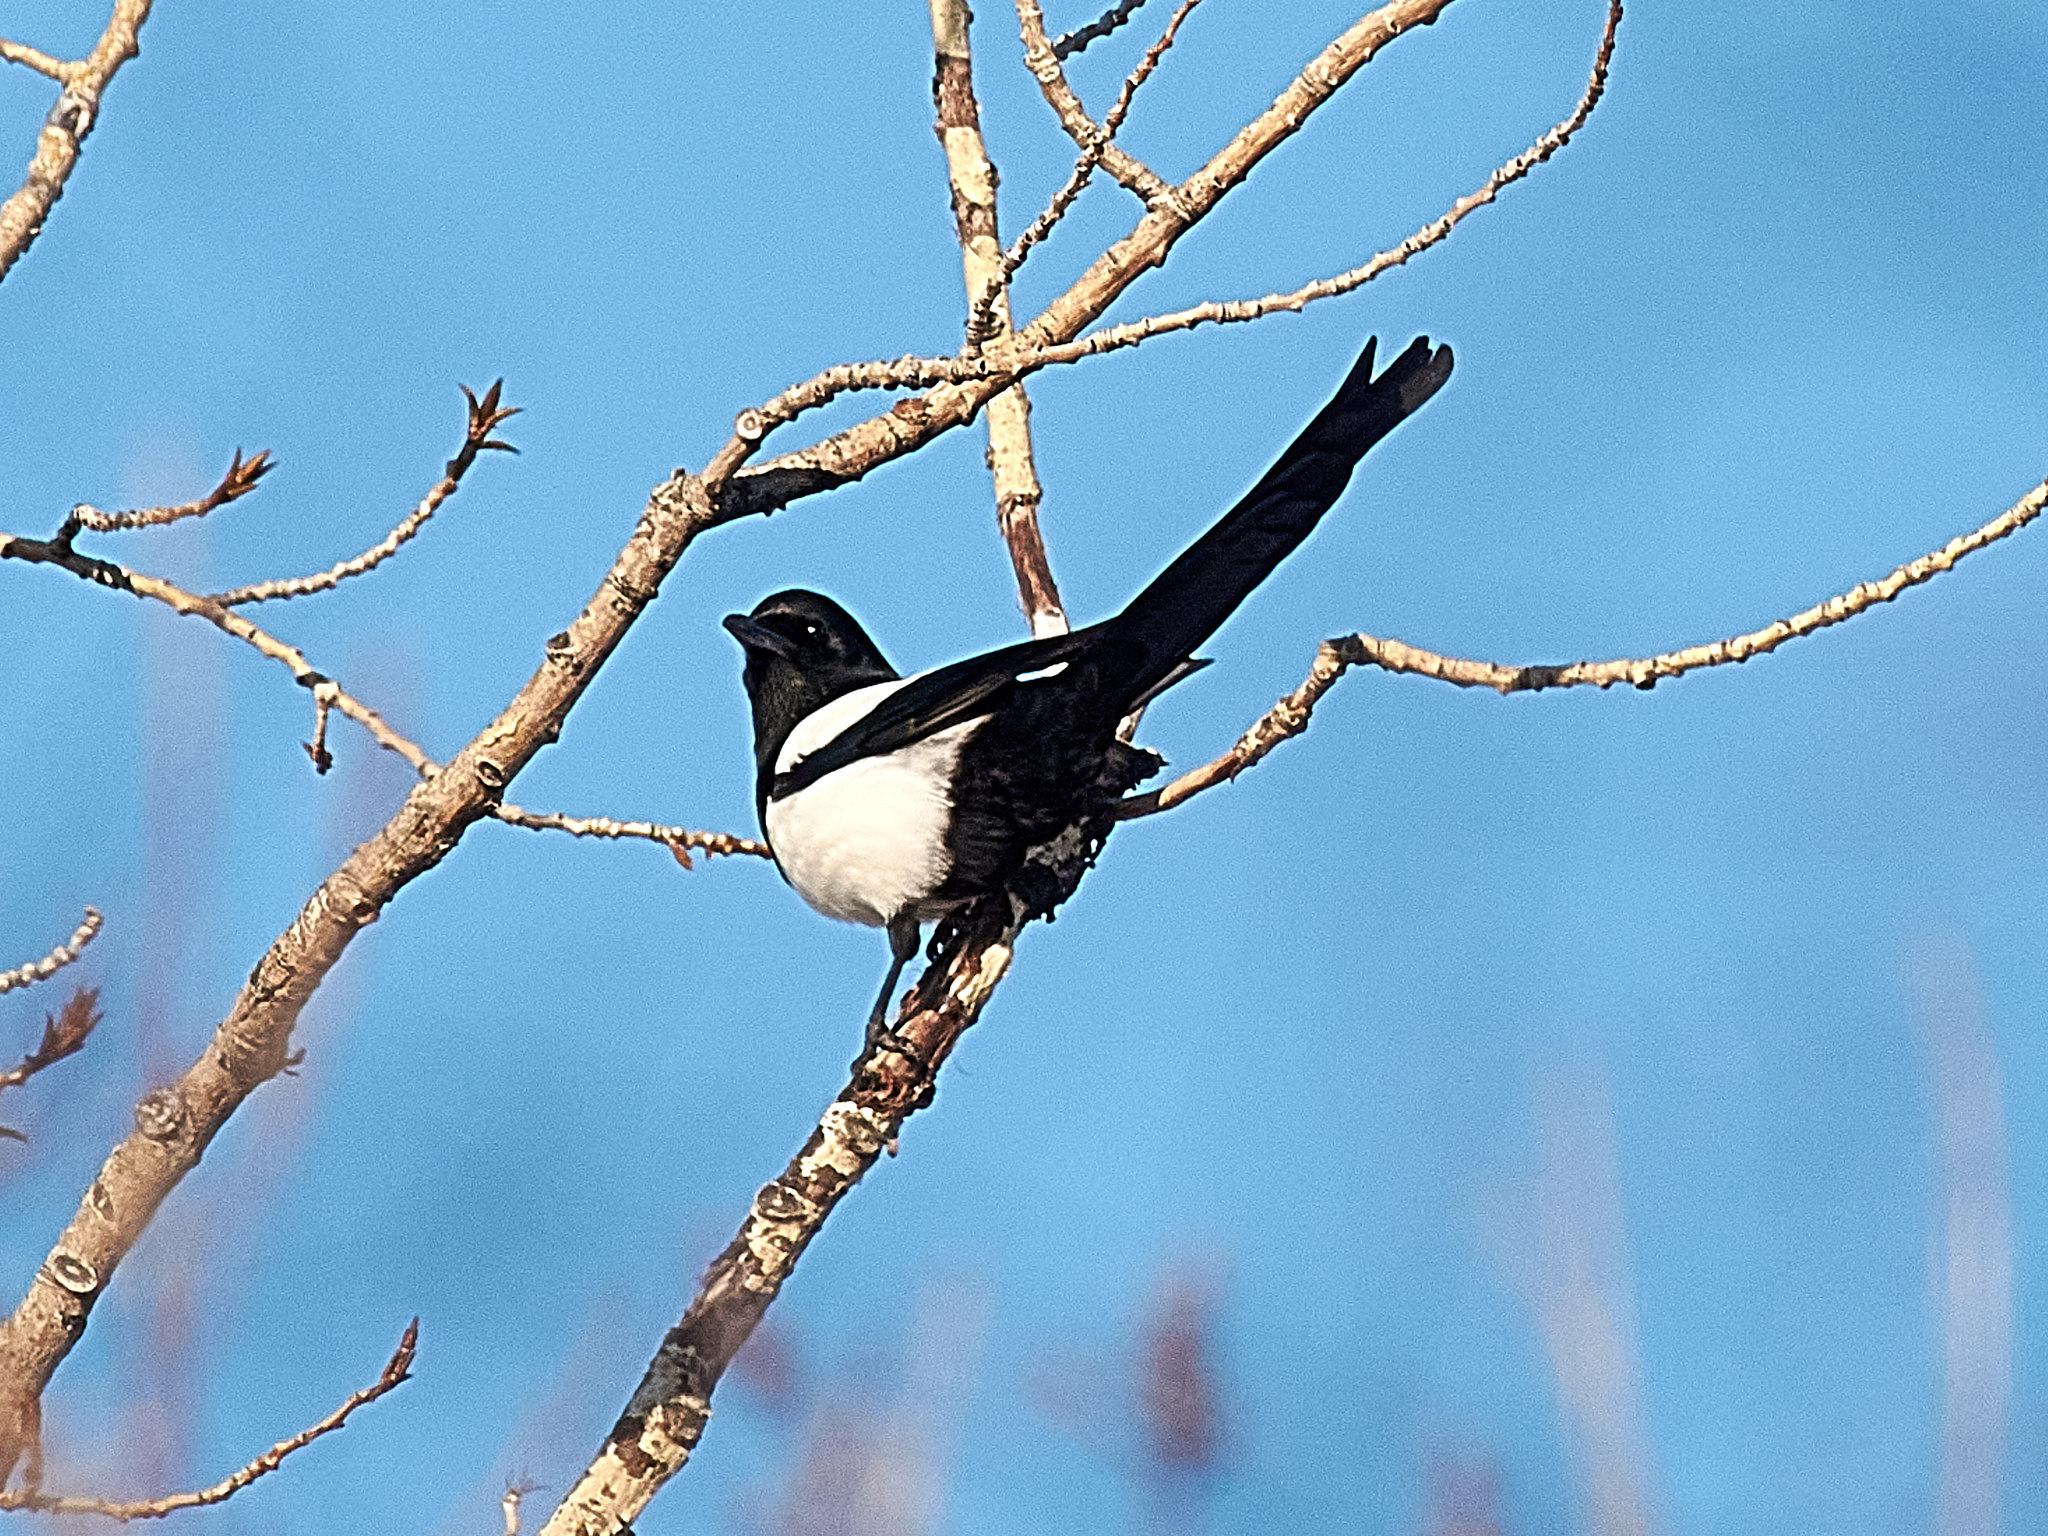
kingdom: Animalia
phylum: Chordata
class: Aves
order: Passeriformes
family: Corvidae
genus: Pica
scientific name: Pica pica
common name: Eurasian magpie
